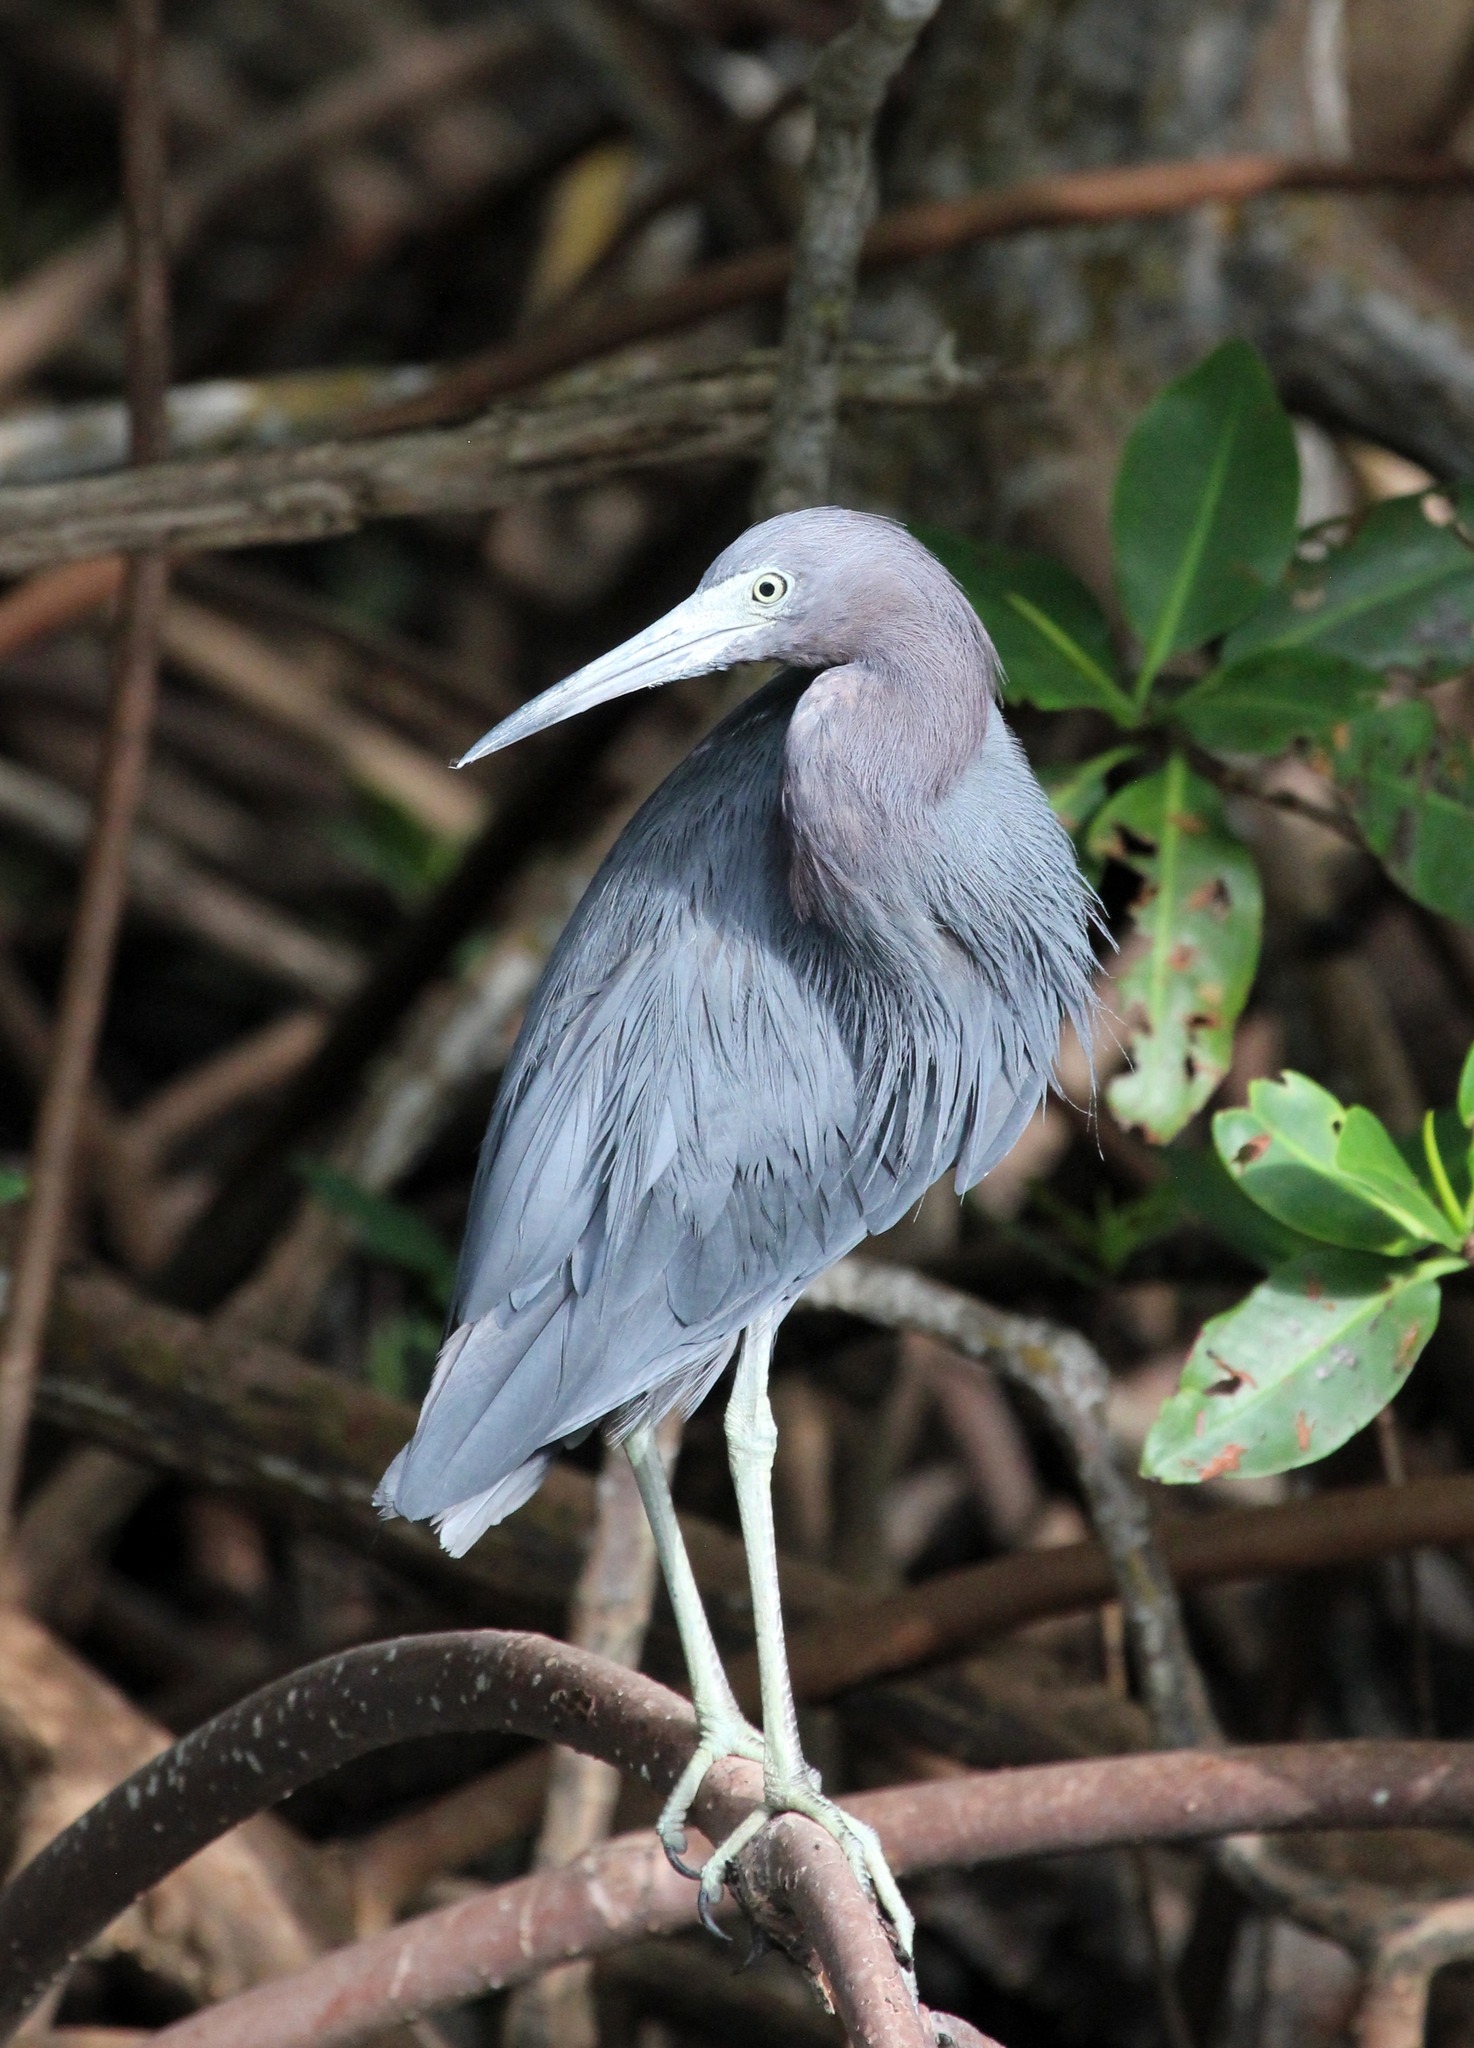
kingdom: Animalia
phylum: Chordata
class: Aves
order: Pelecaniformes
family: Ardeidae
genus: Egretta
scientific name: Egretta caerulea
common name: Little blue heron
